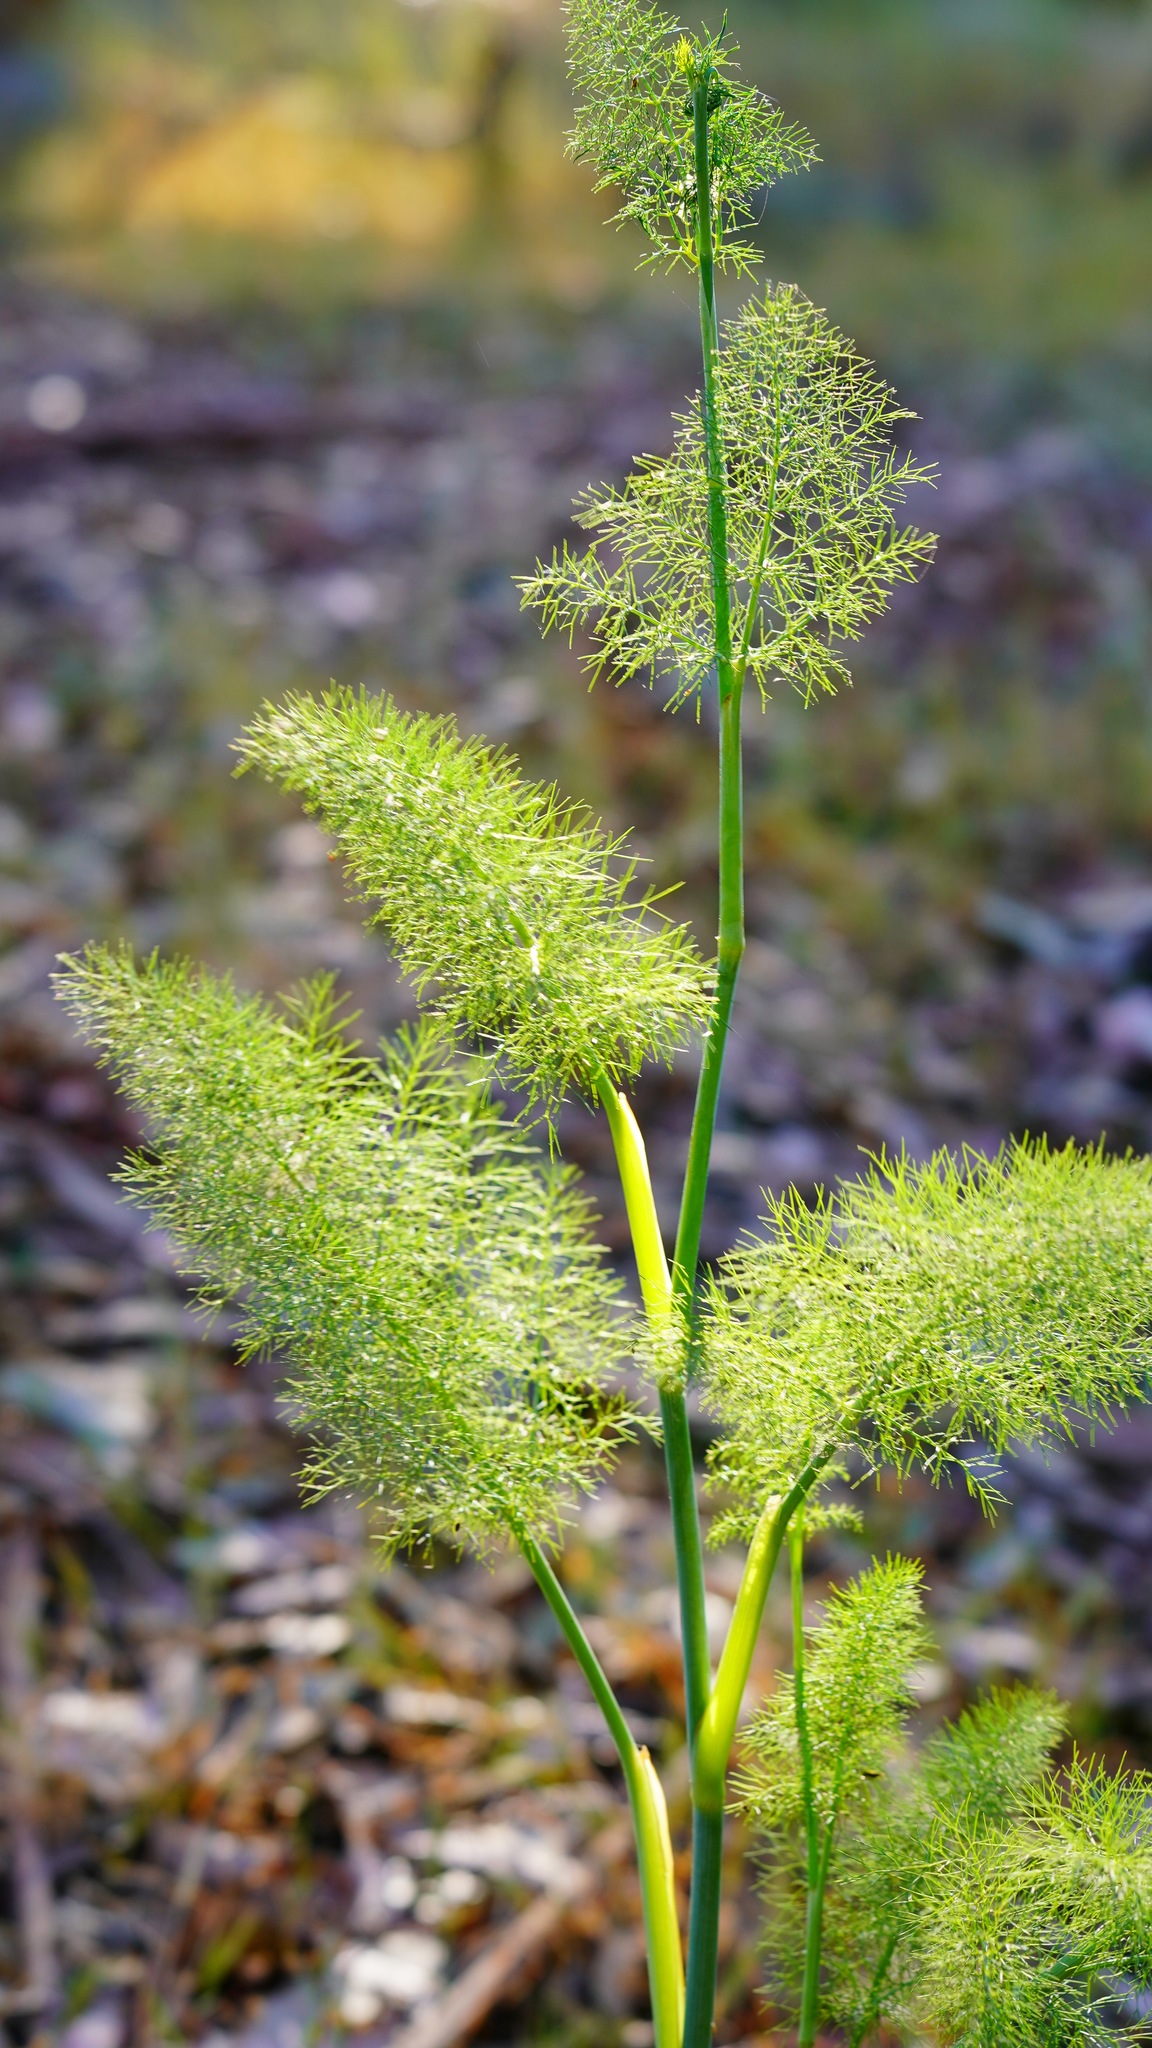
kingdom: Plantae
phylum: Tracheophyta
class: Magnoliopsida
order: Apiales
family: Apiaceae
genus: Foeniculum
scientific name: Foeniculum vulgare
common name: Fennel
